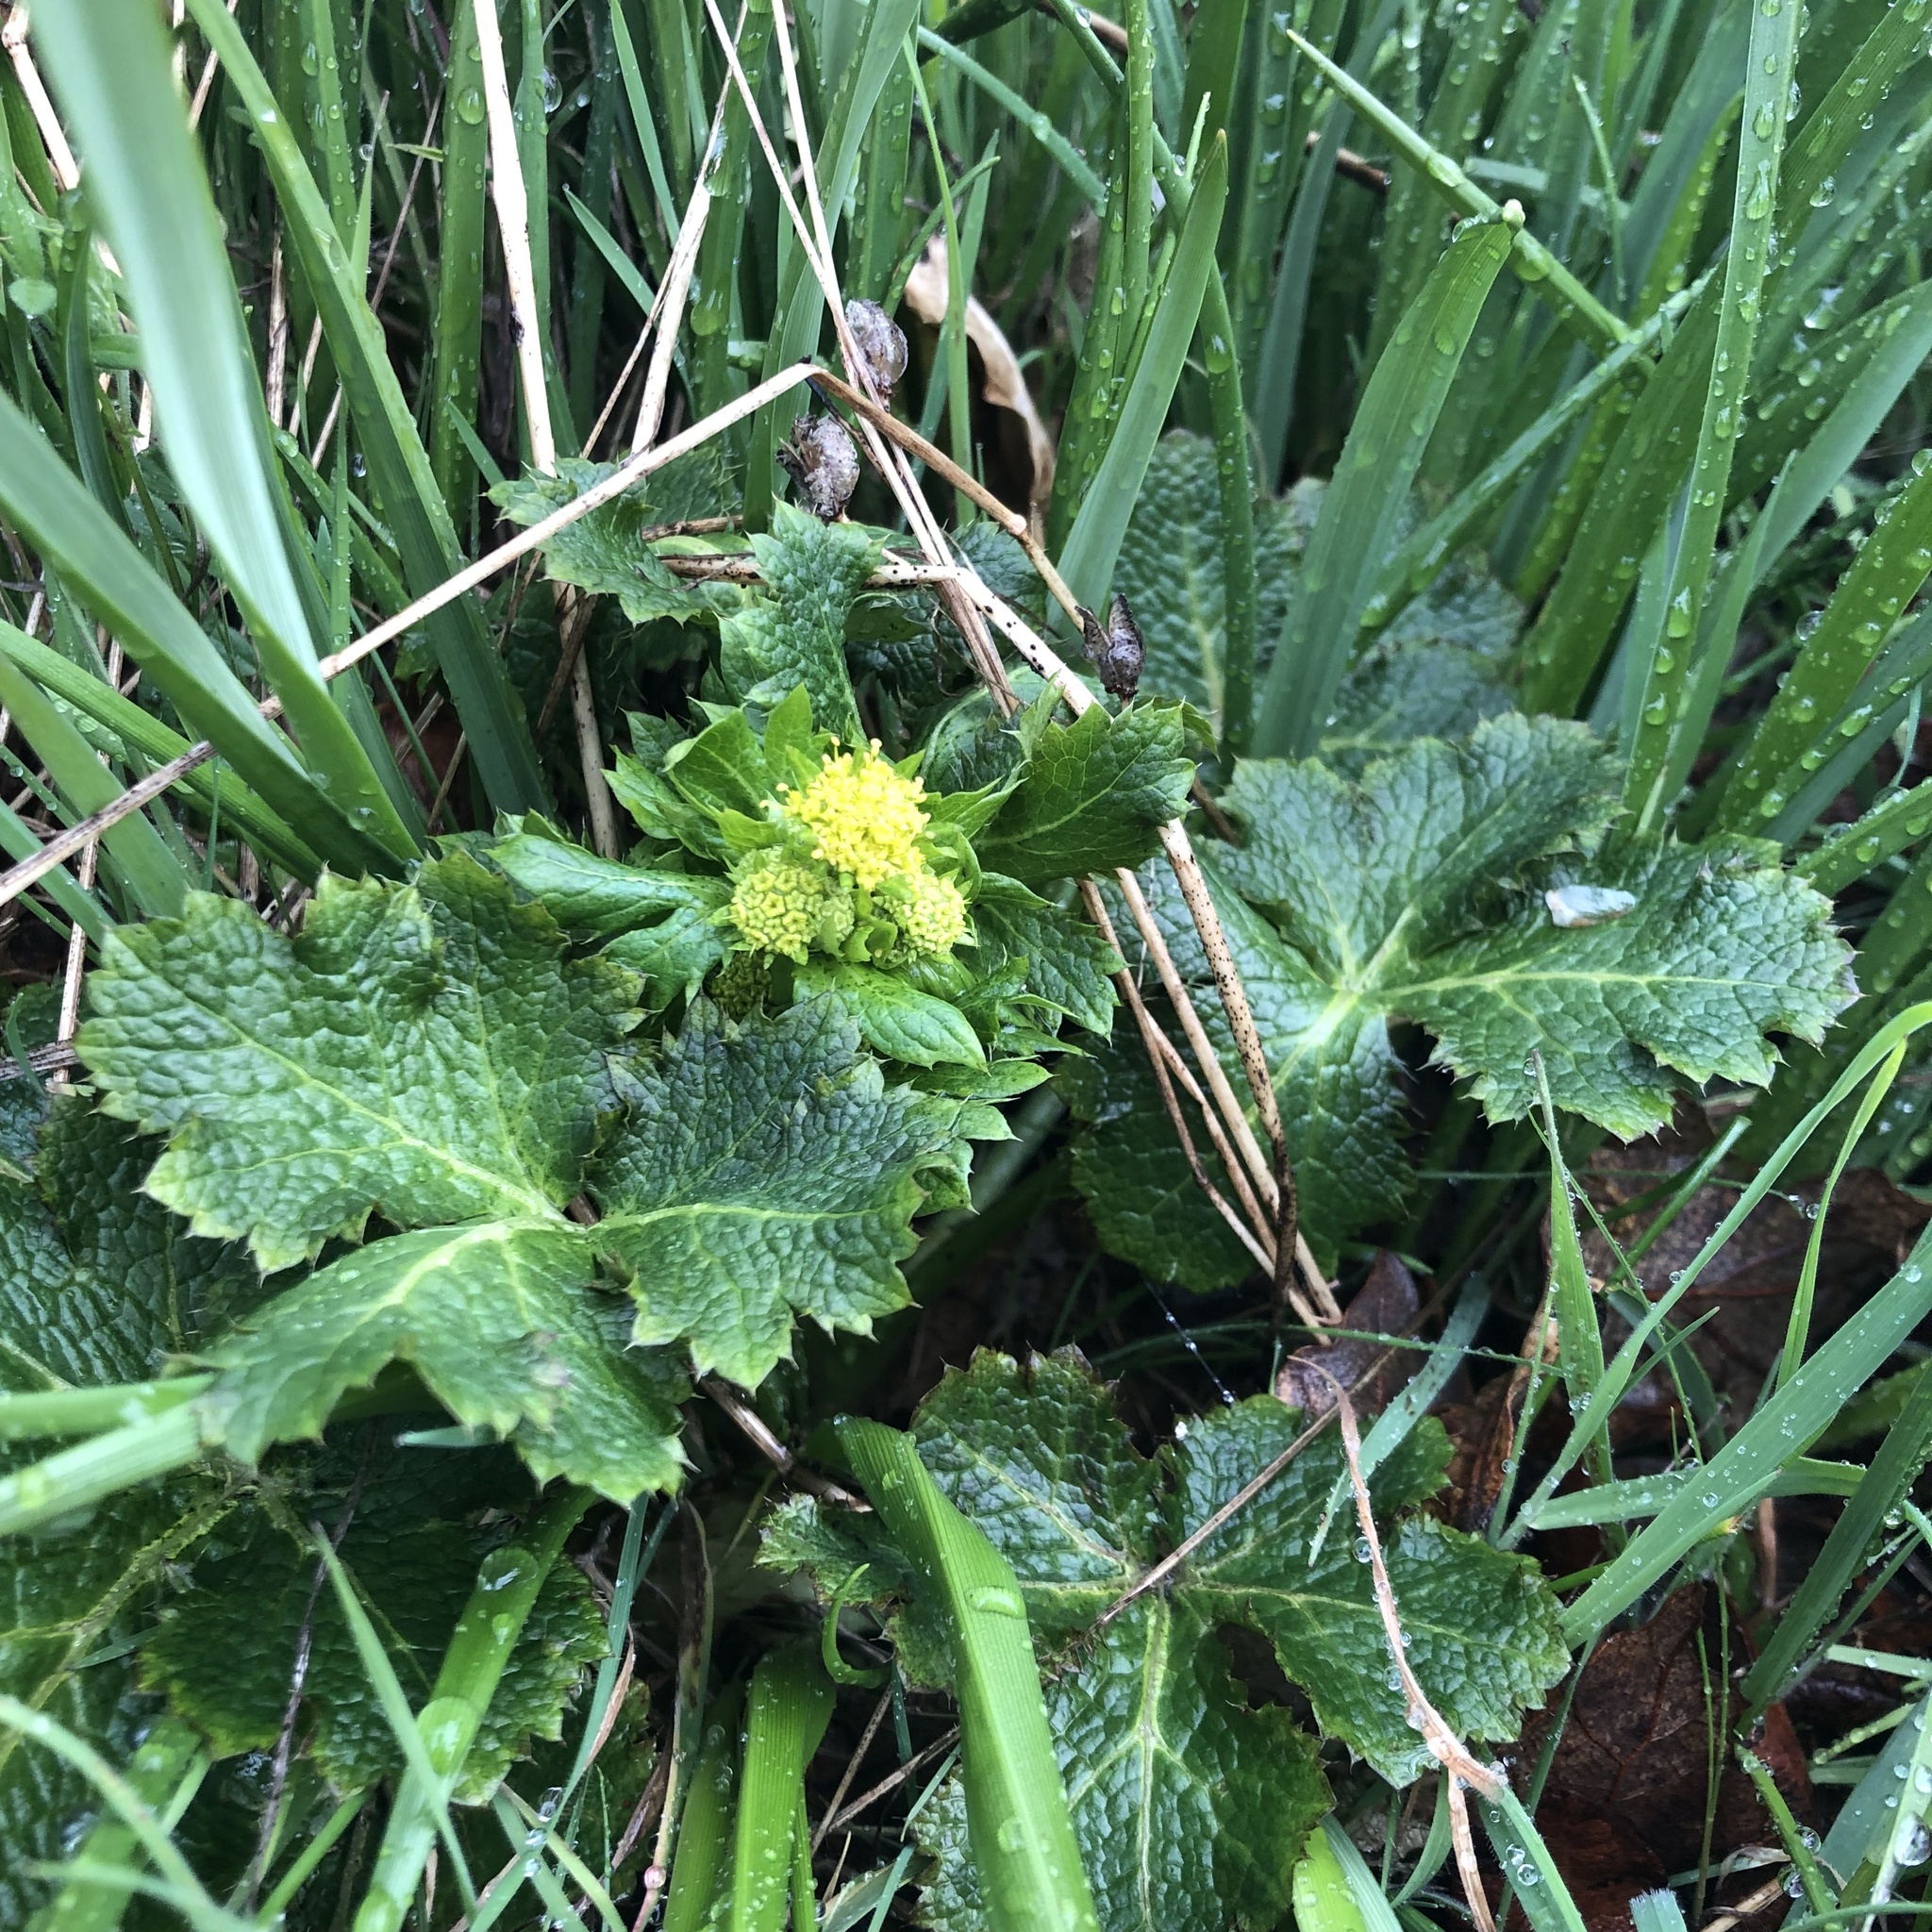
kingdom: Plantae
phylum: Tracheophyta
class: Magnoliopsida
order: Apiales
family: Apiaceae
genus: Sanicula
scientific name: Sanicula crassicaulis
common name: Western snakeroot
